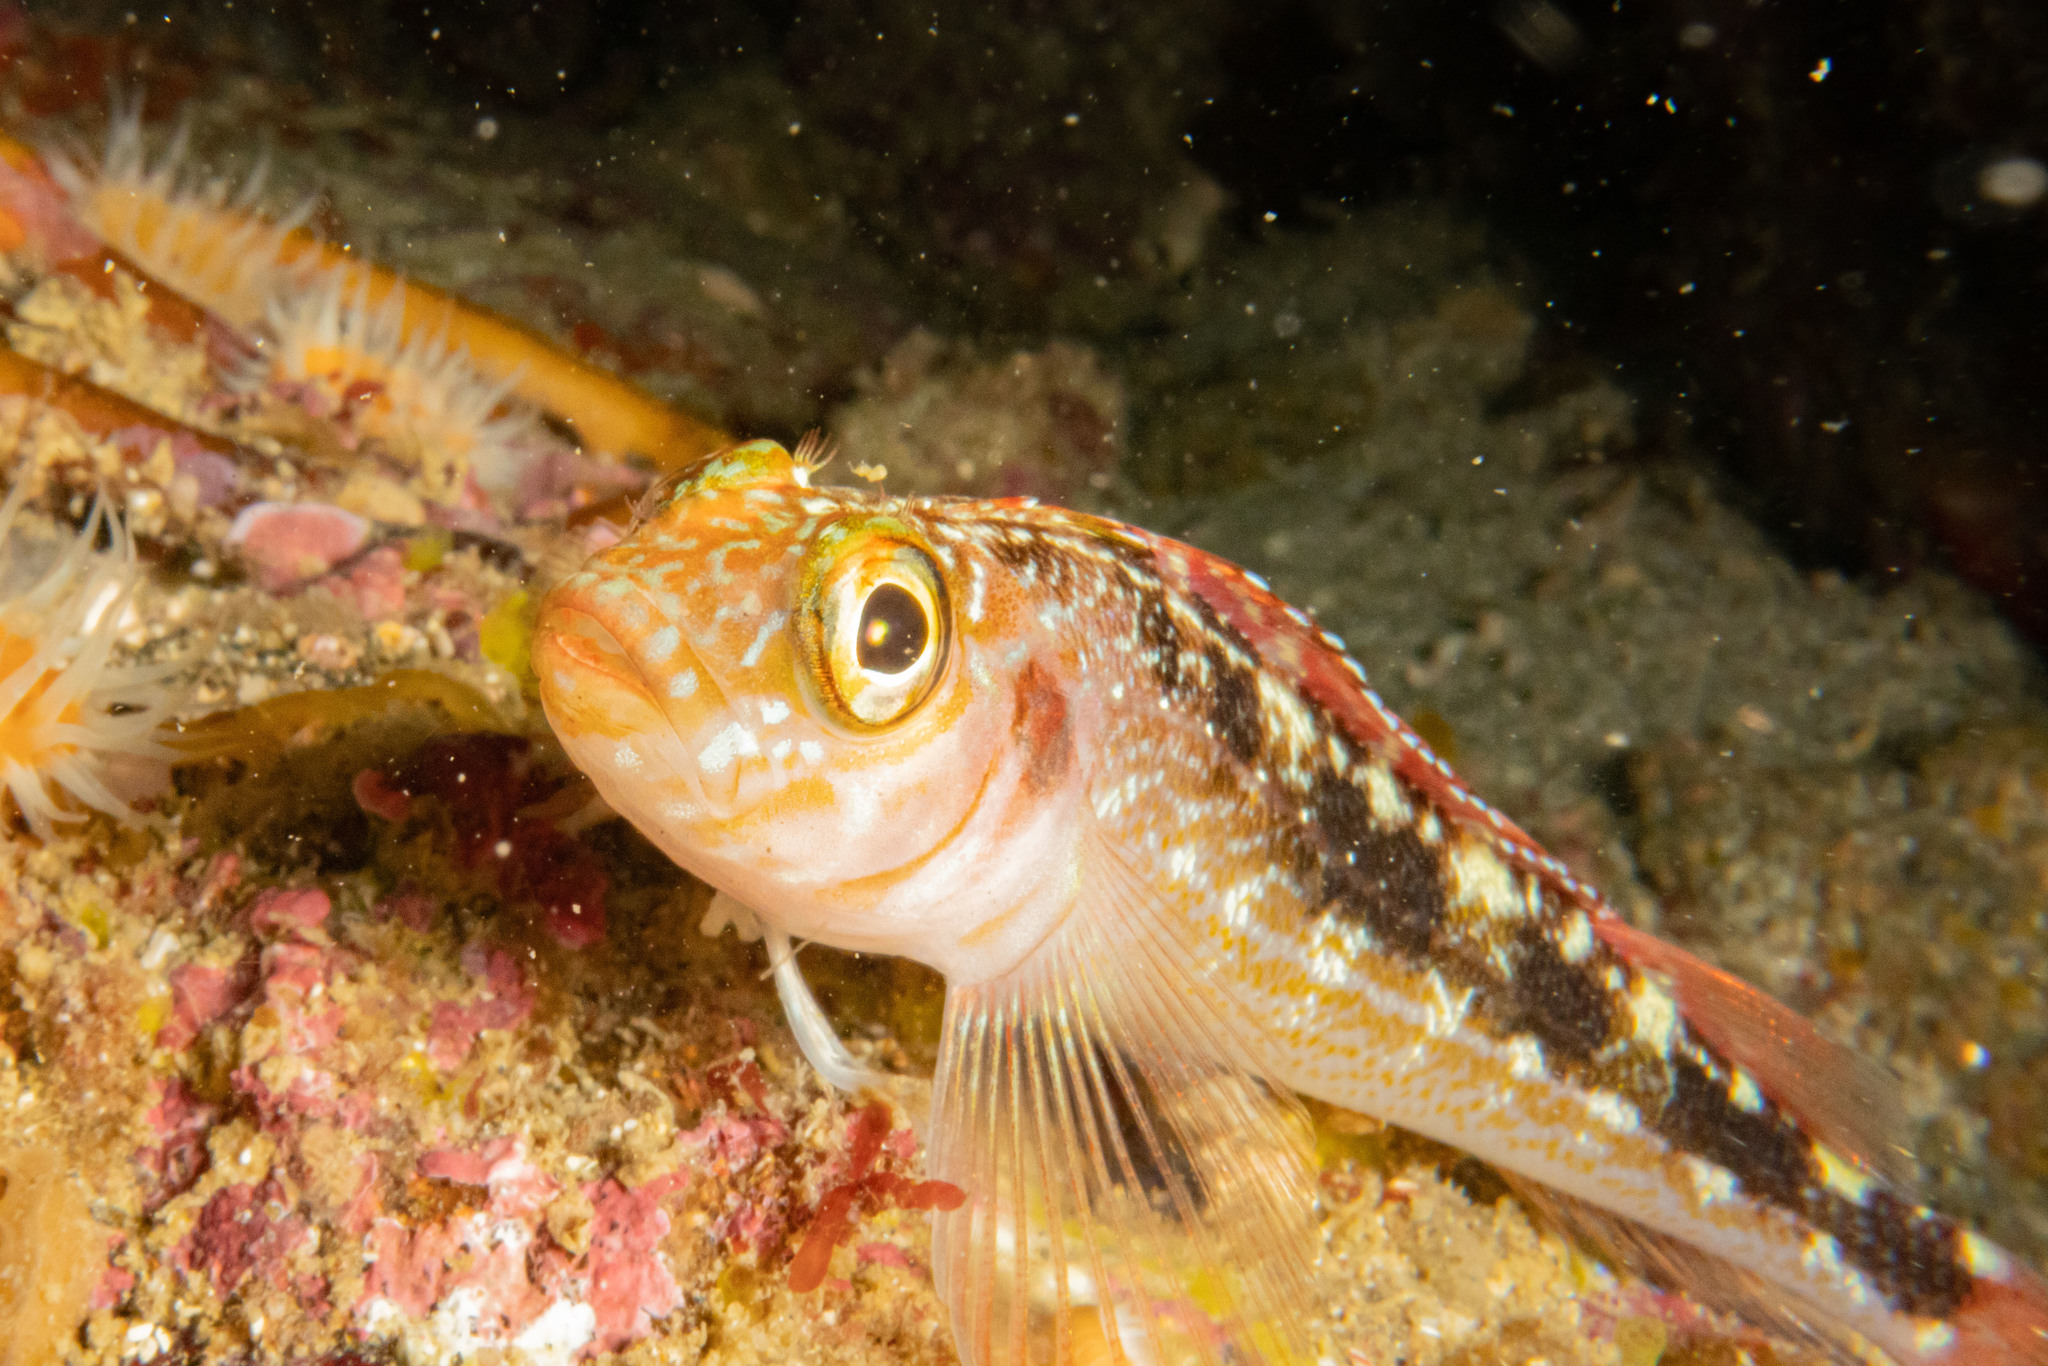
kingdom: Animalia
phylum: Chordata
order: Perciformes
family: Tripterygiidae
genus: Forsterygion
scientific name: Forsterygion varium
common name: Variable triplefin
